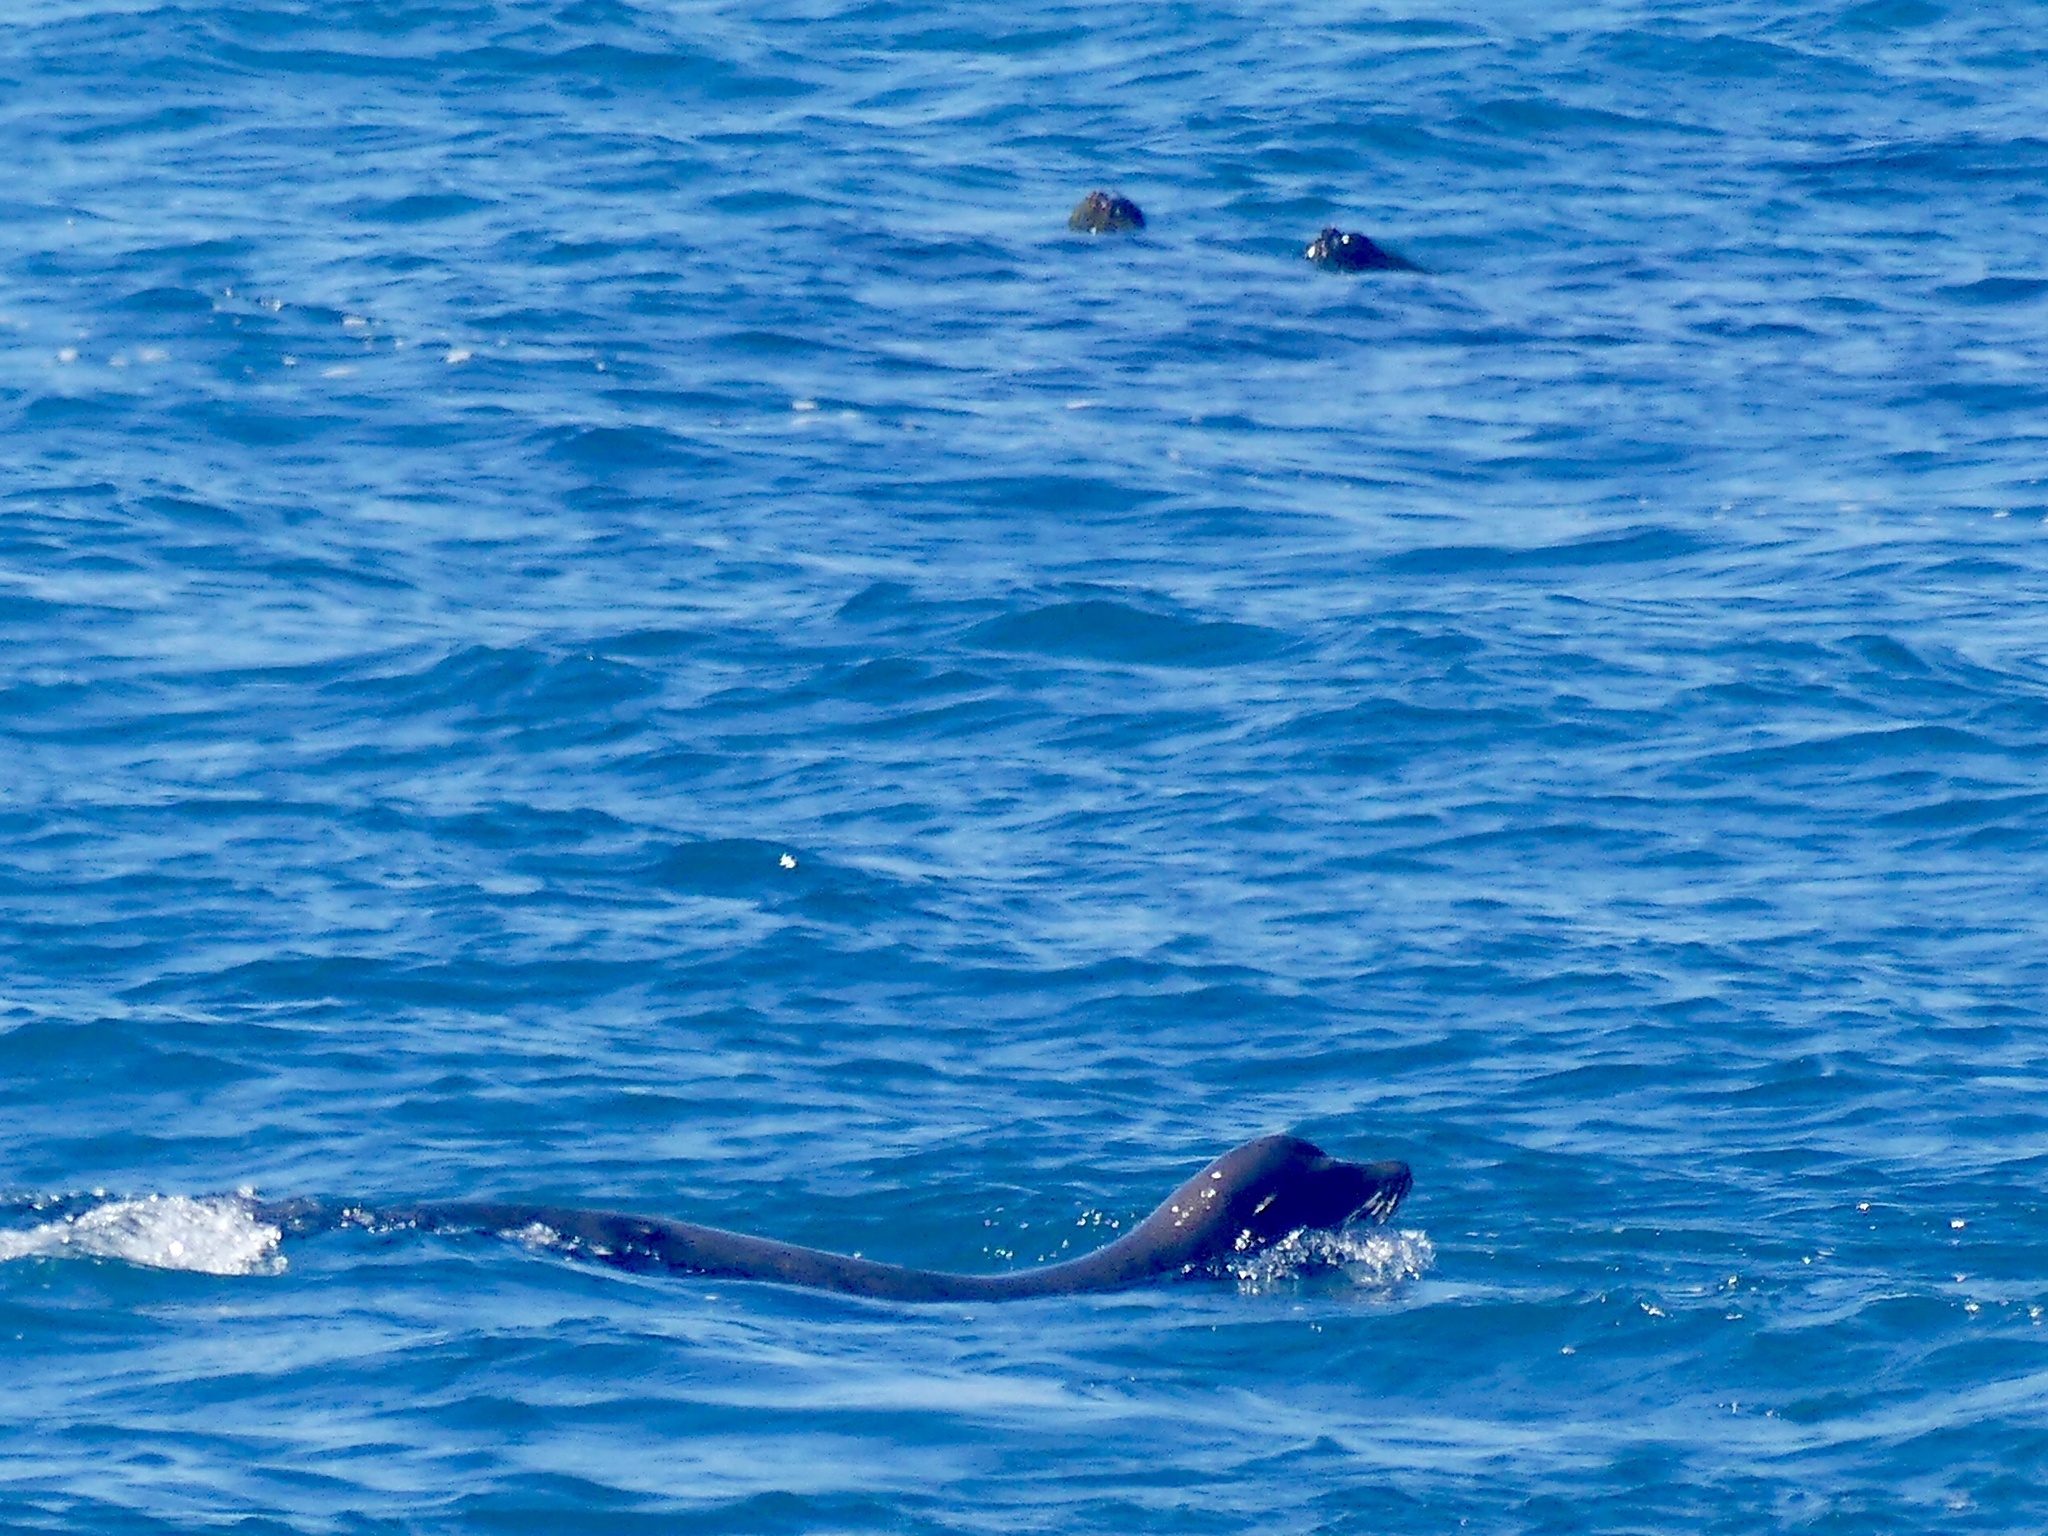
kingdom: Animalia
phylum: Chordata
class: Mammalia
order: Carnivora
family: Otariidae
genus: Zalophus
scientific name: Zalophus californianus
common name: California sea lion
